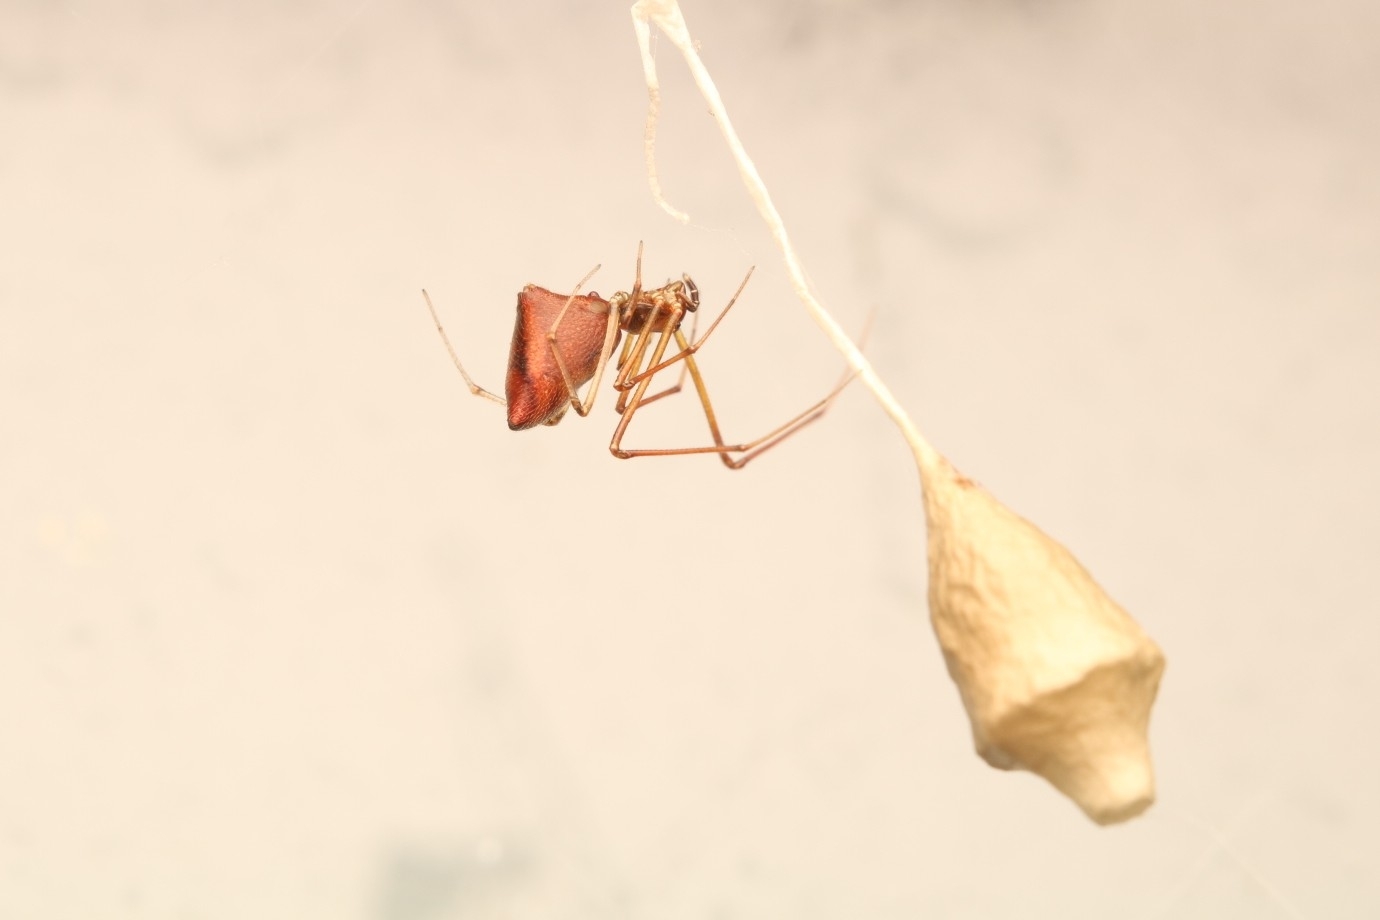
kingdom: Animalia
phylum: Arthropoda
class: Arachnida
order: Araneae
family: Theridiidae
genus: Neospintharus
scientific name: Neospintharus trigonum
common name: Horned parasitic cobweaver
